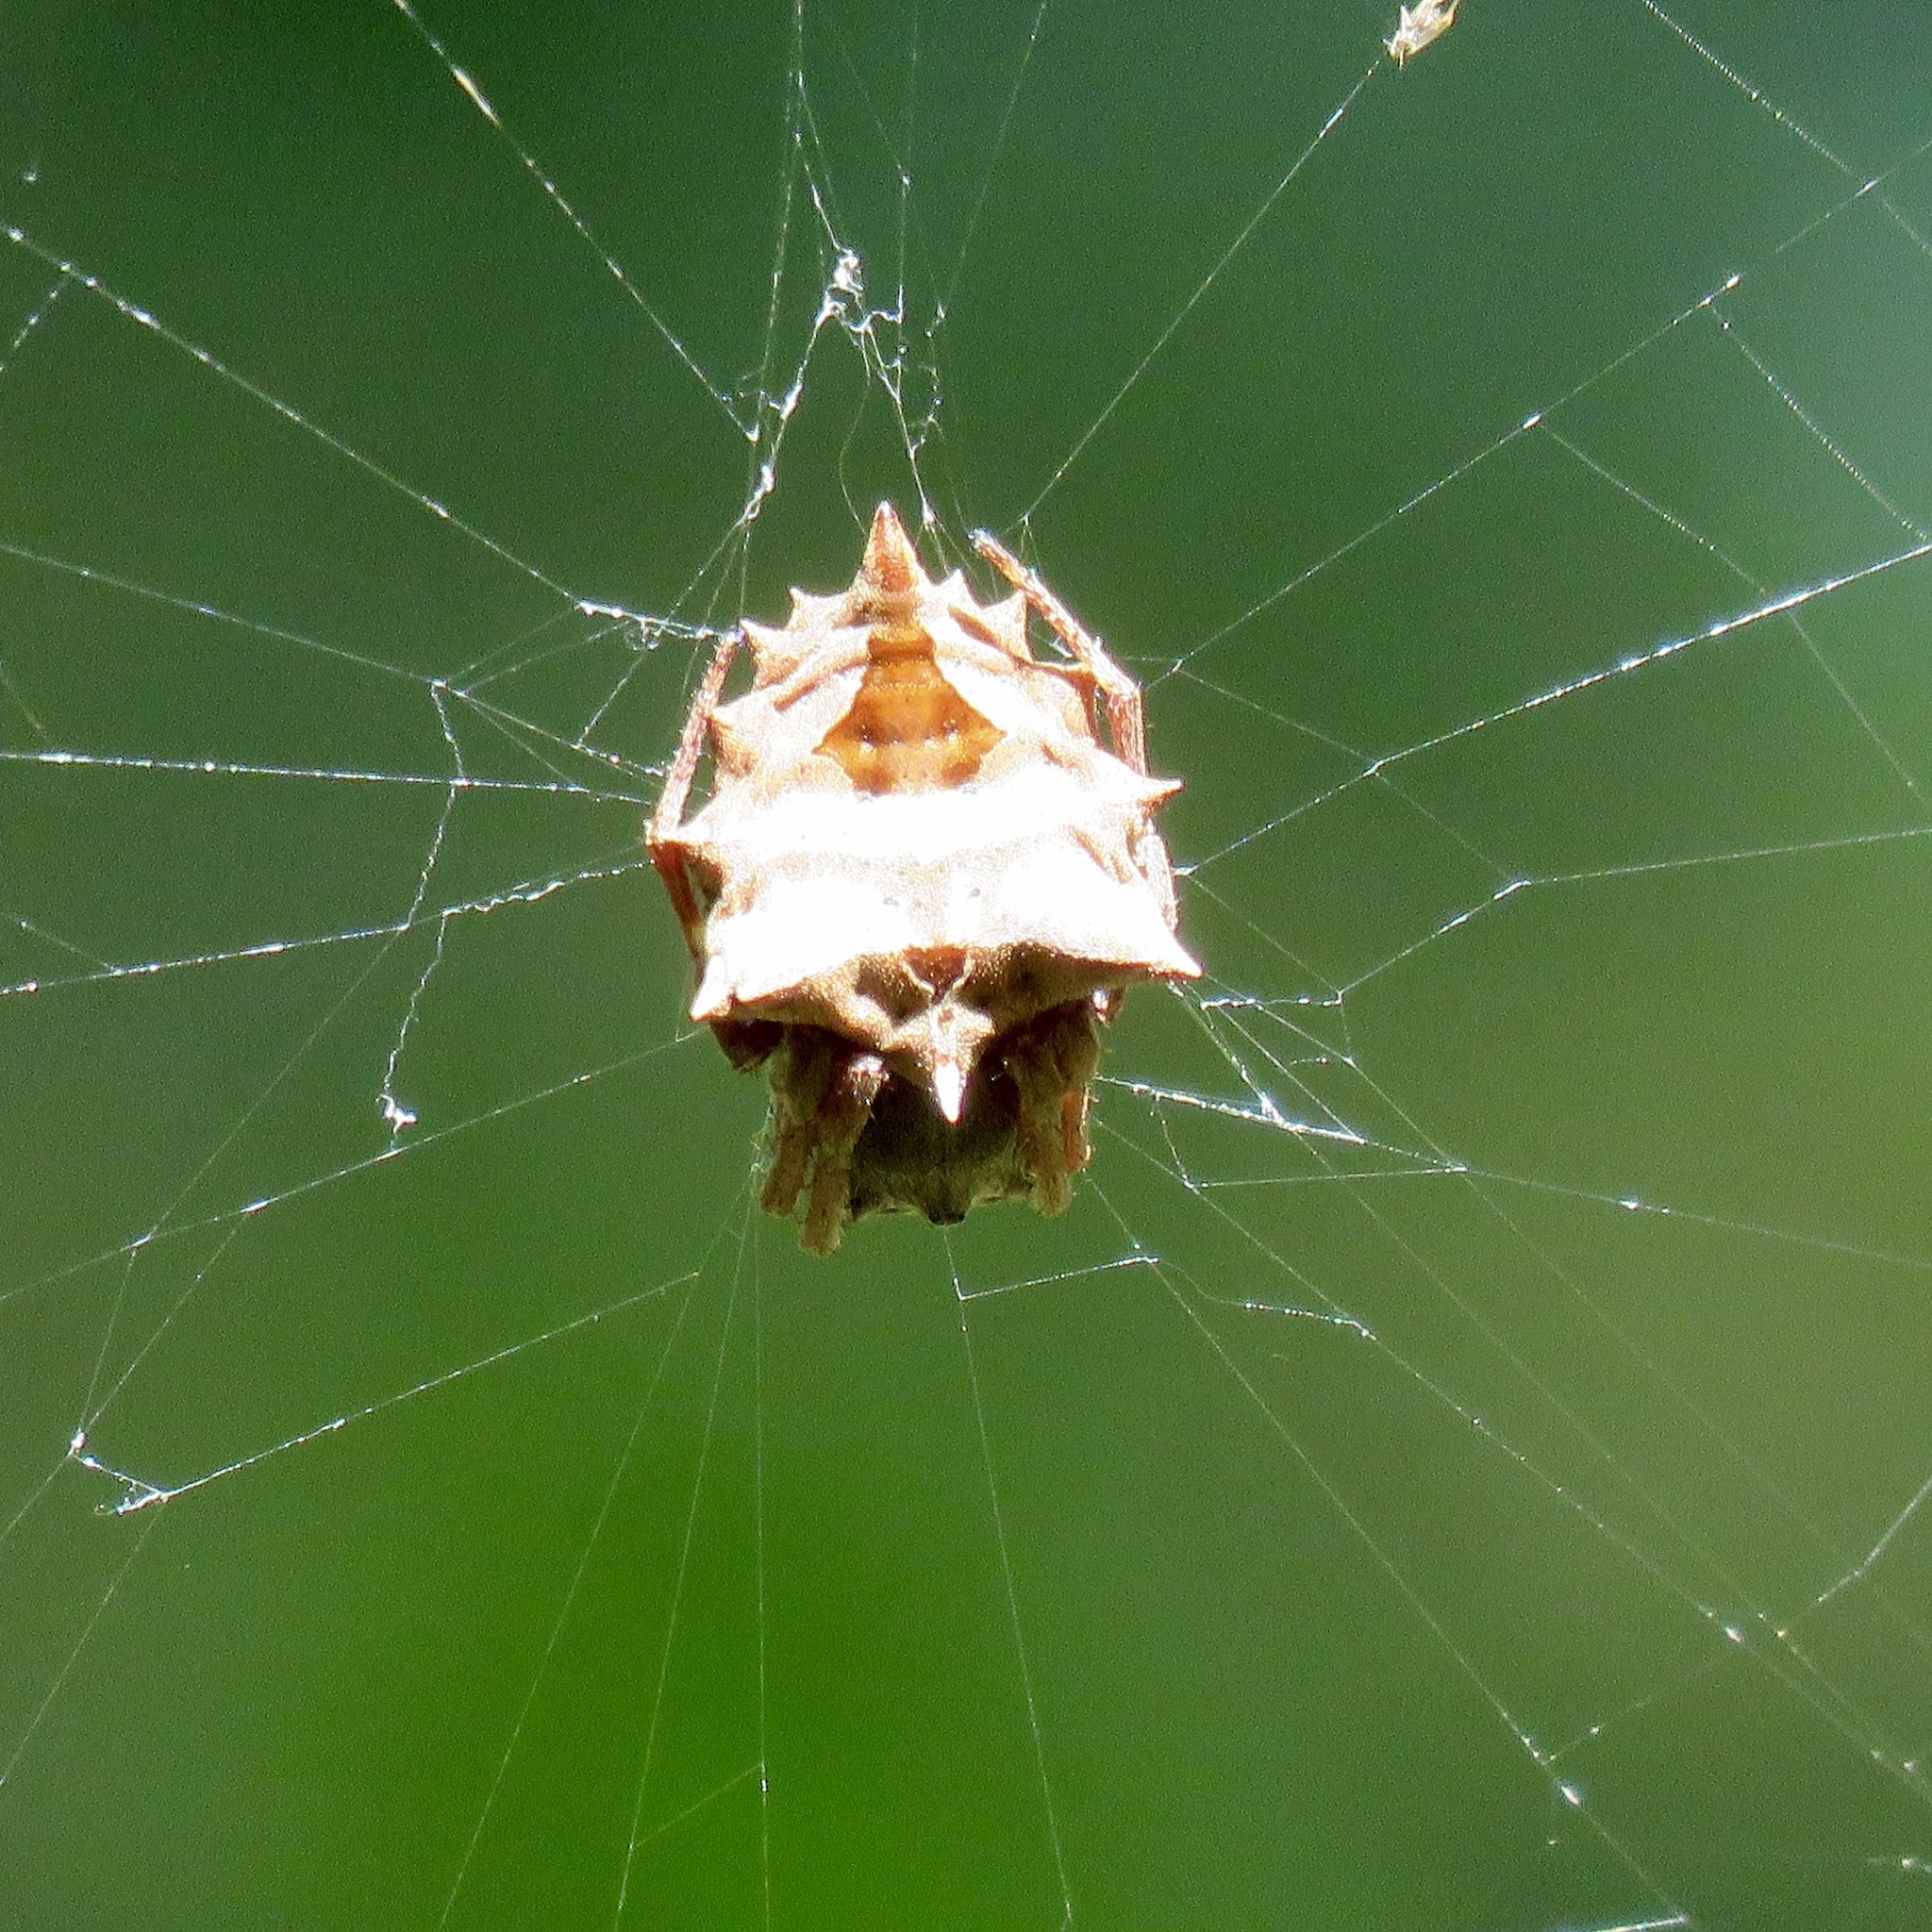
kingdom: Animalia
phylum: Arthropoda
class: Arachnida
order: Araneae
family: Araneidae
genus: Acanthepeira
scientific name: Acanthepeira stellata
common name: Starbellied orbweaver
